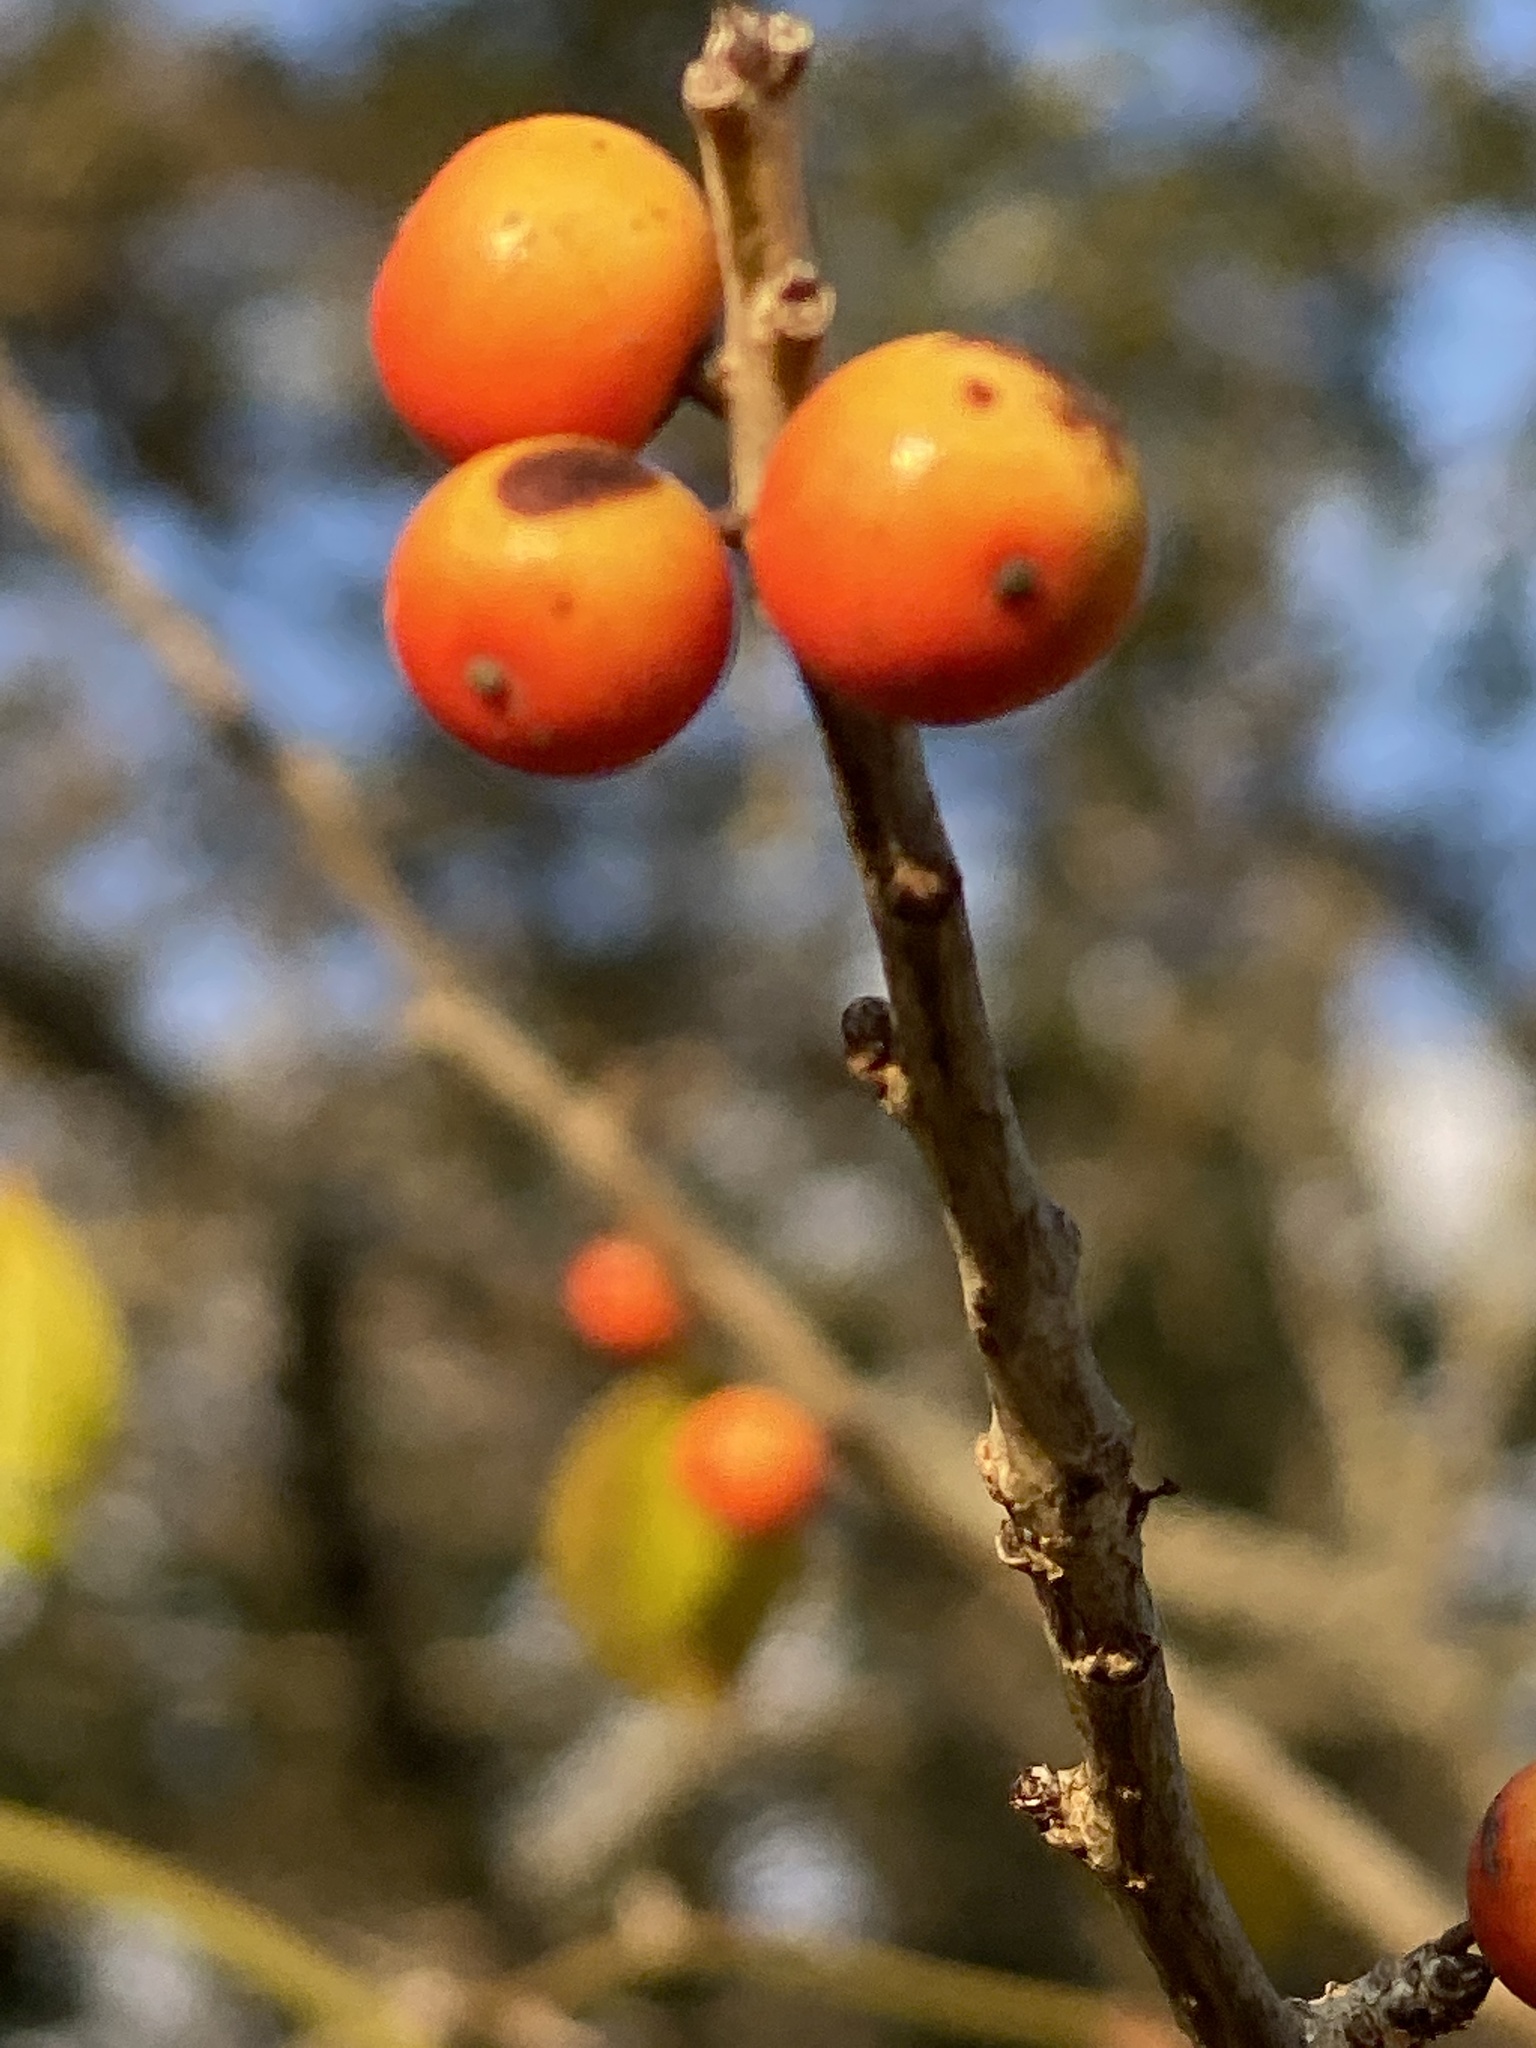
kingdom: Plantae
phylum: Tracheophyta
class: Magnoliopsida
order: Aquifoliales
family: Aquifoliaceae
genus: Ilex
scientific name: Ilex decidua
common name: Possum-haw
